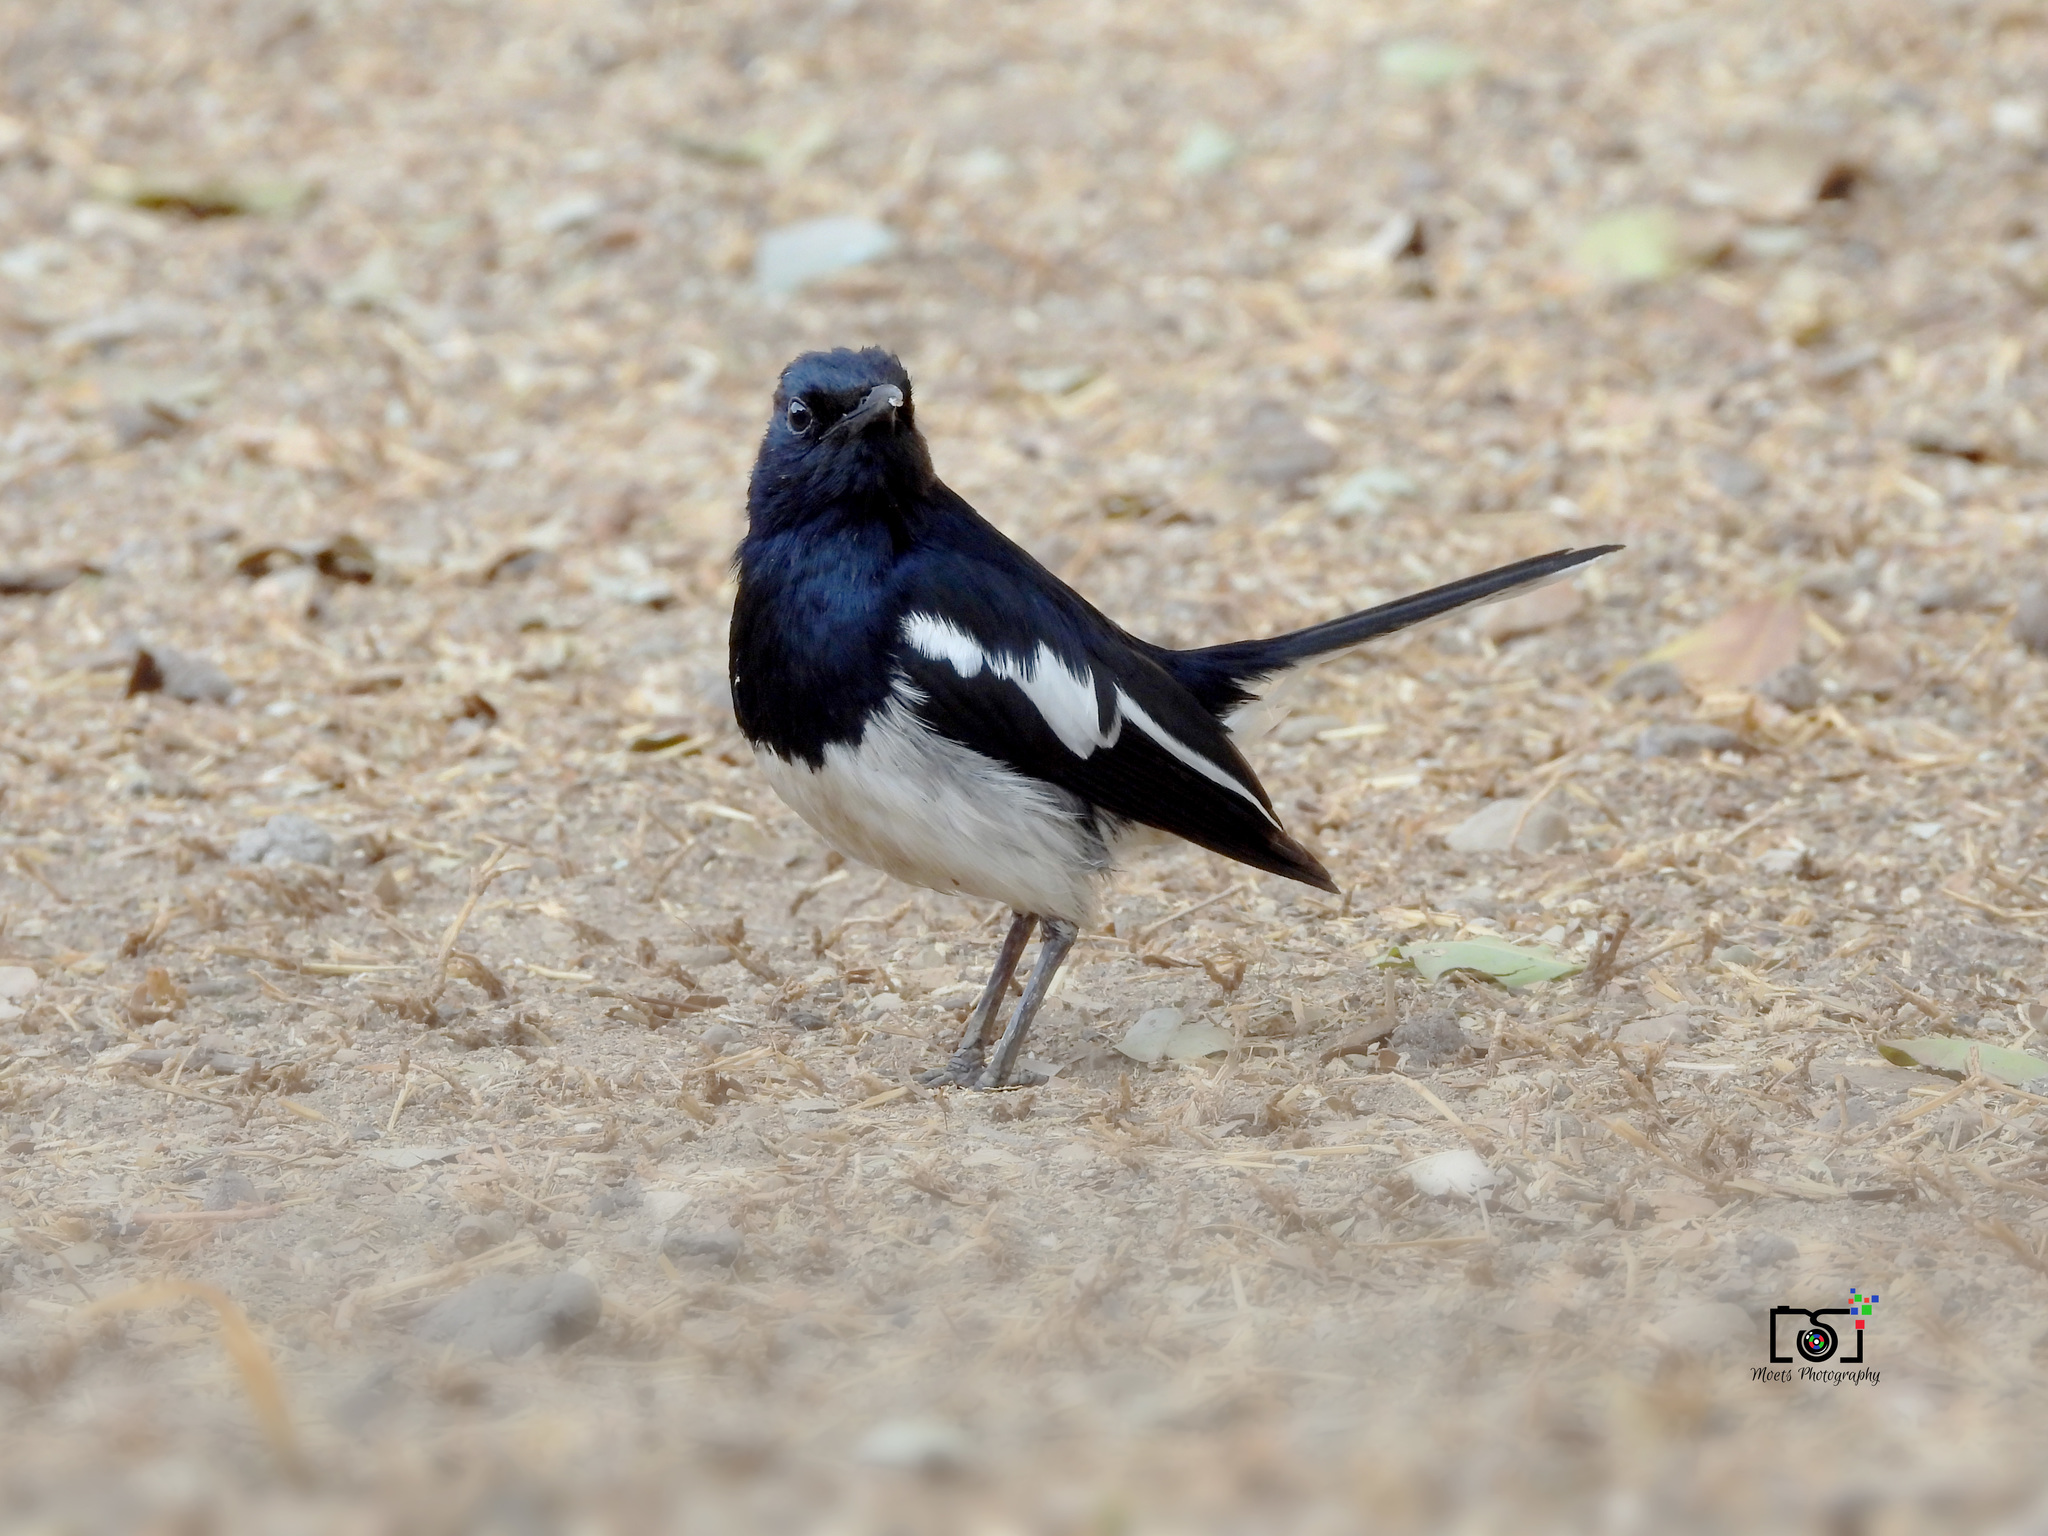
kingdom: Animalia
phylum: Chordata
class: Aves
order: Passeriformes
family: Muscicapidae
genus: Copsychus
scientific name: Copsychus saularis
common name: Oriental magpie-robin
